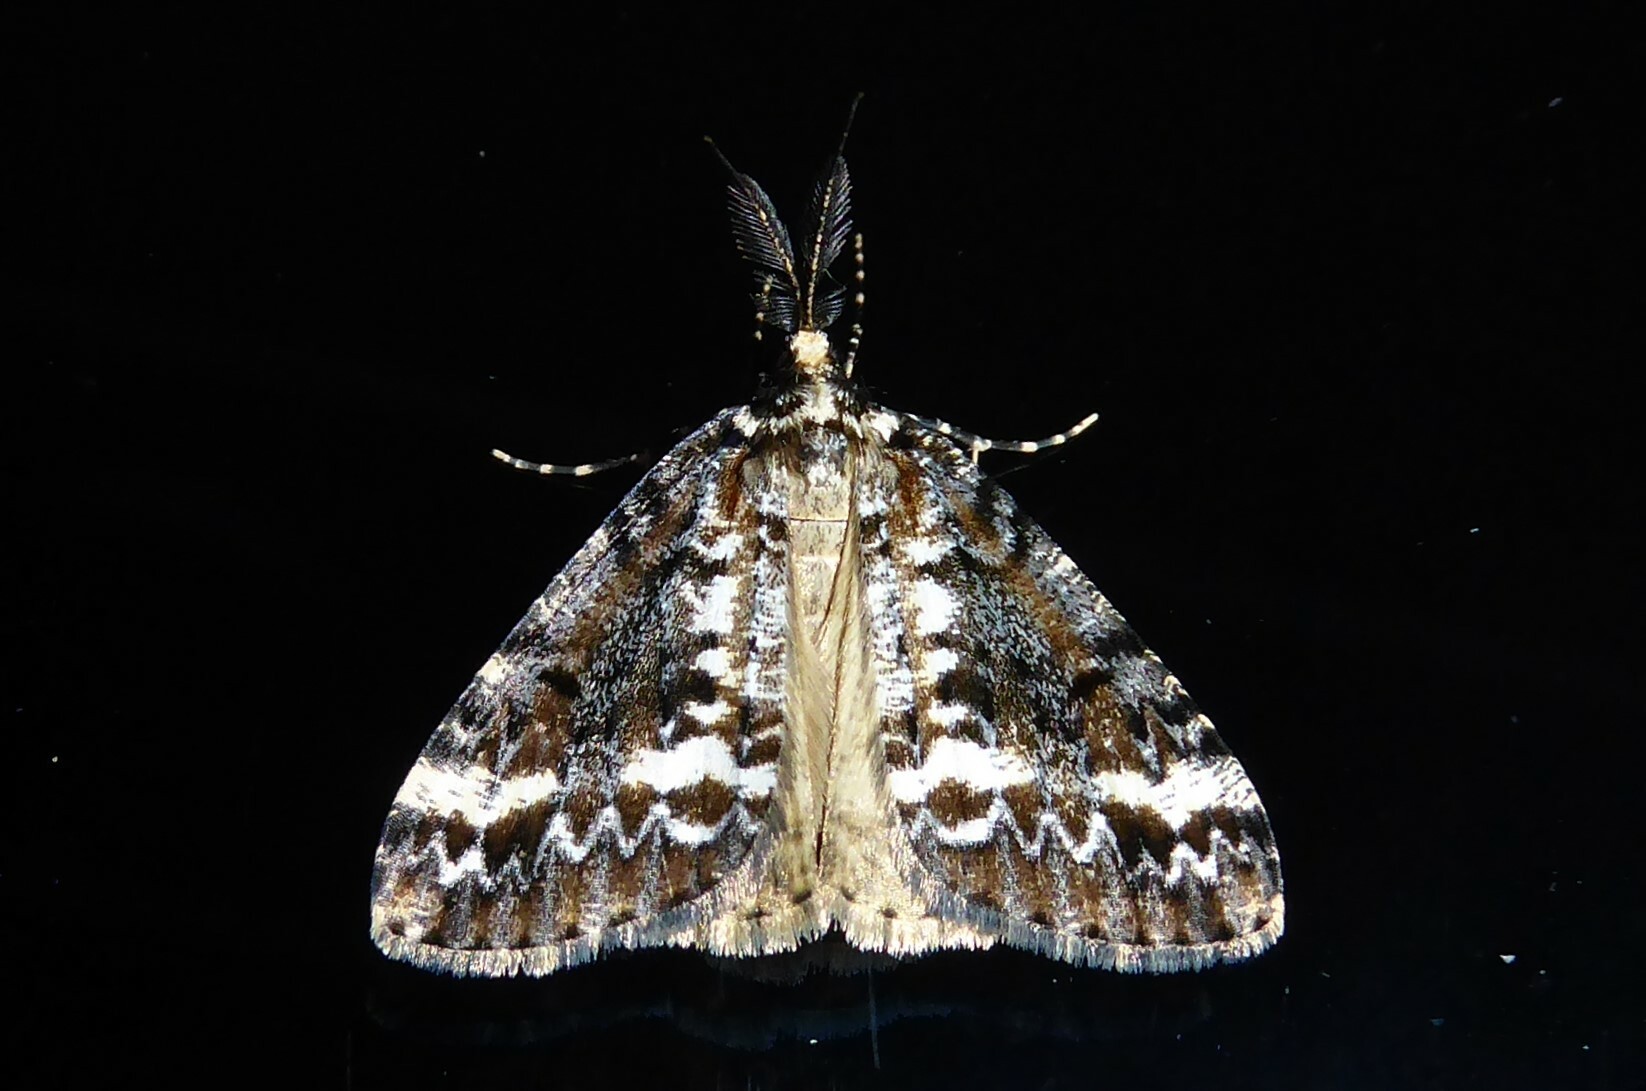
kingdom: Animalia
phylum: Arthropoda
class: Insecta
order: Lepidoptera
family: Geometridae
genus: Pseudocoremia
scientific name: Pseudocoremia leucelaea
